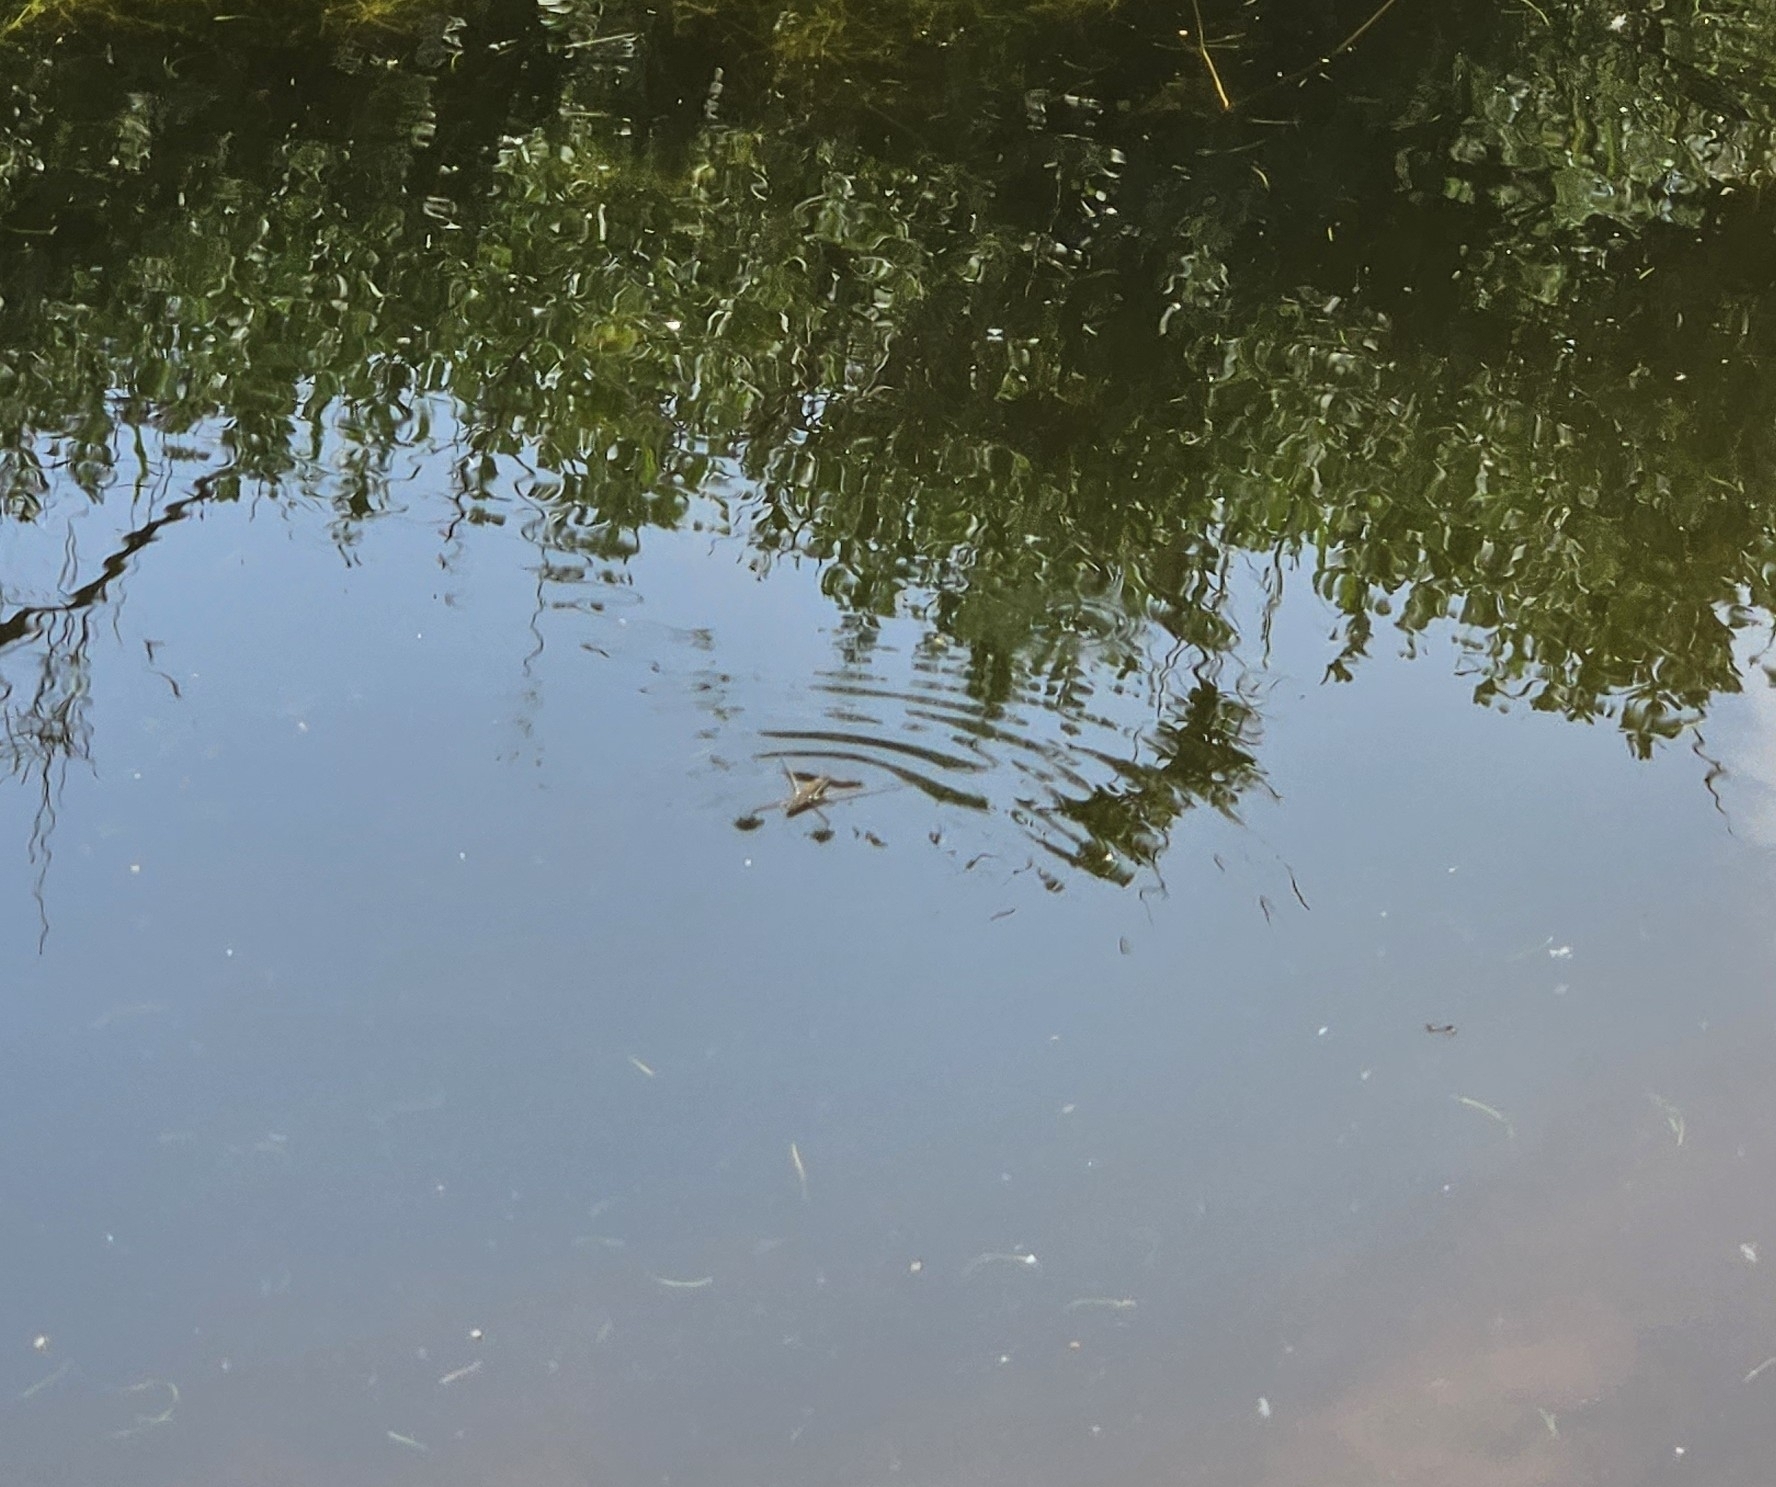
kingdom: Animalia
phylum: Arthropoda
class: Insecta
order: Hemiptera
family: Gerridae
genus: Aquarius
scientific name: Aquarius remigis
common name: Common water strider
